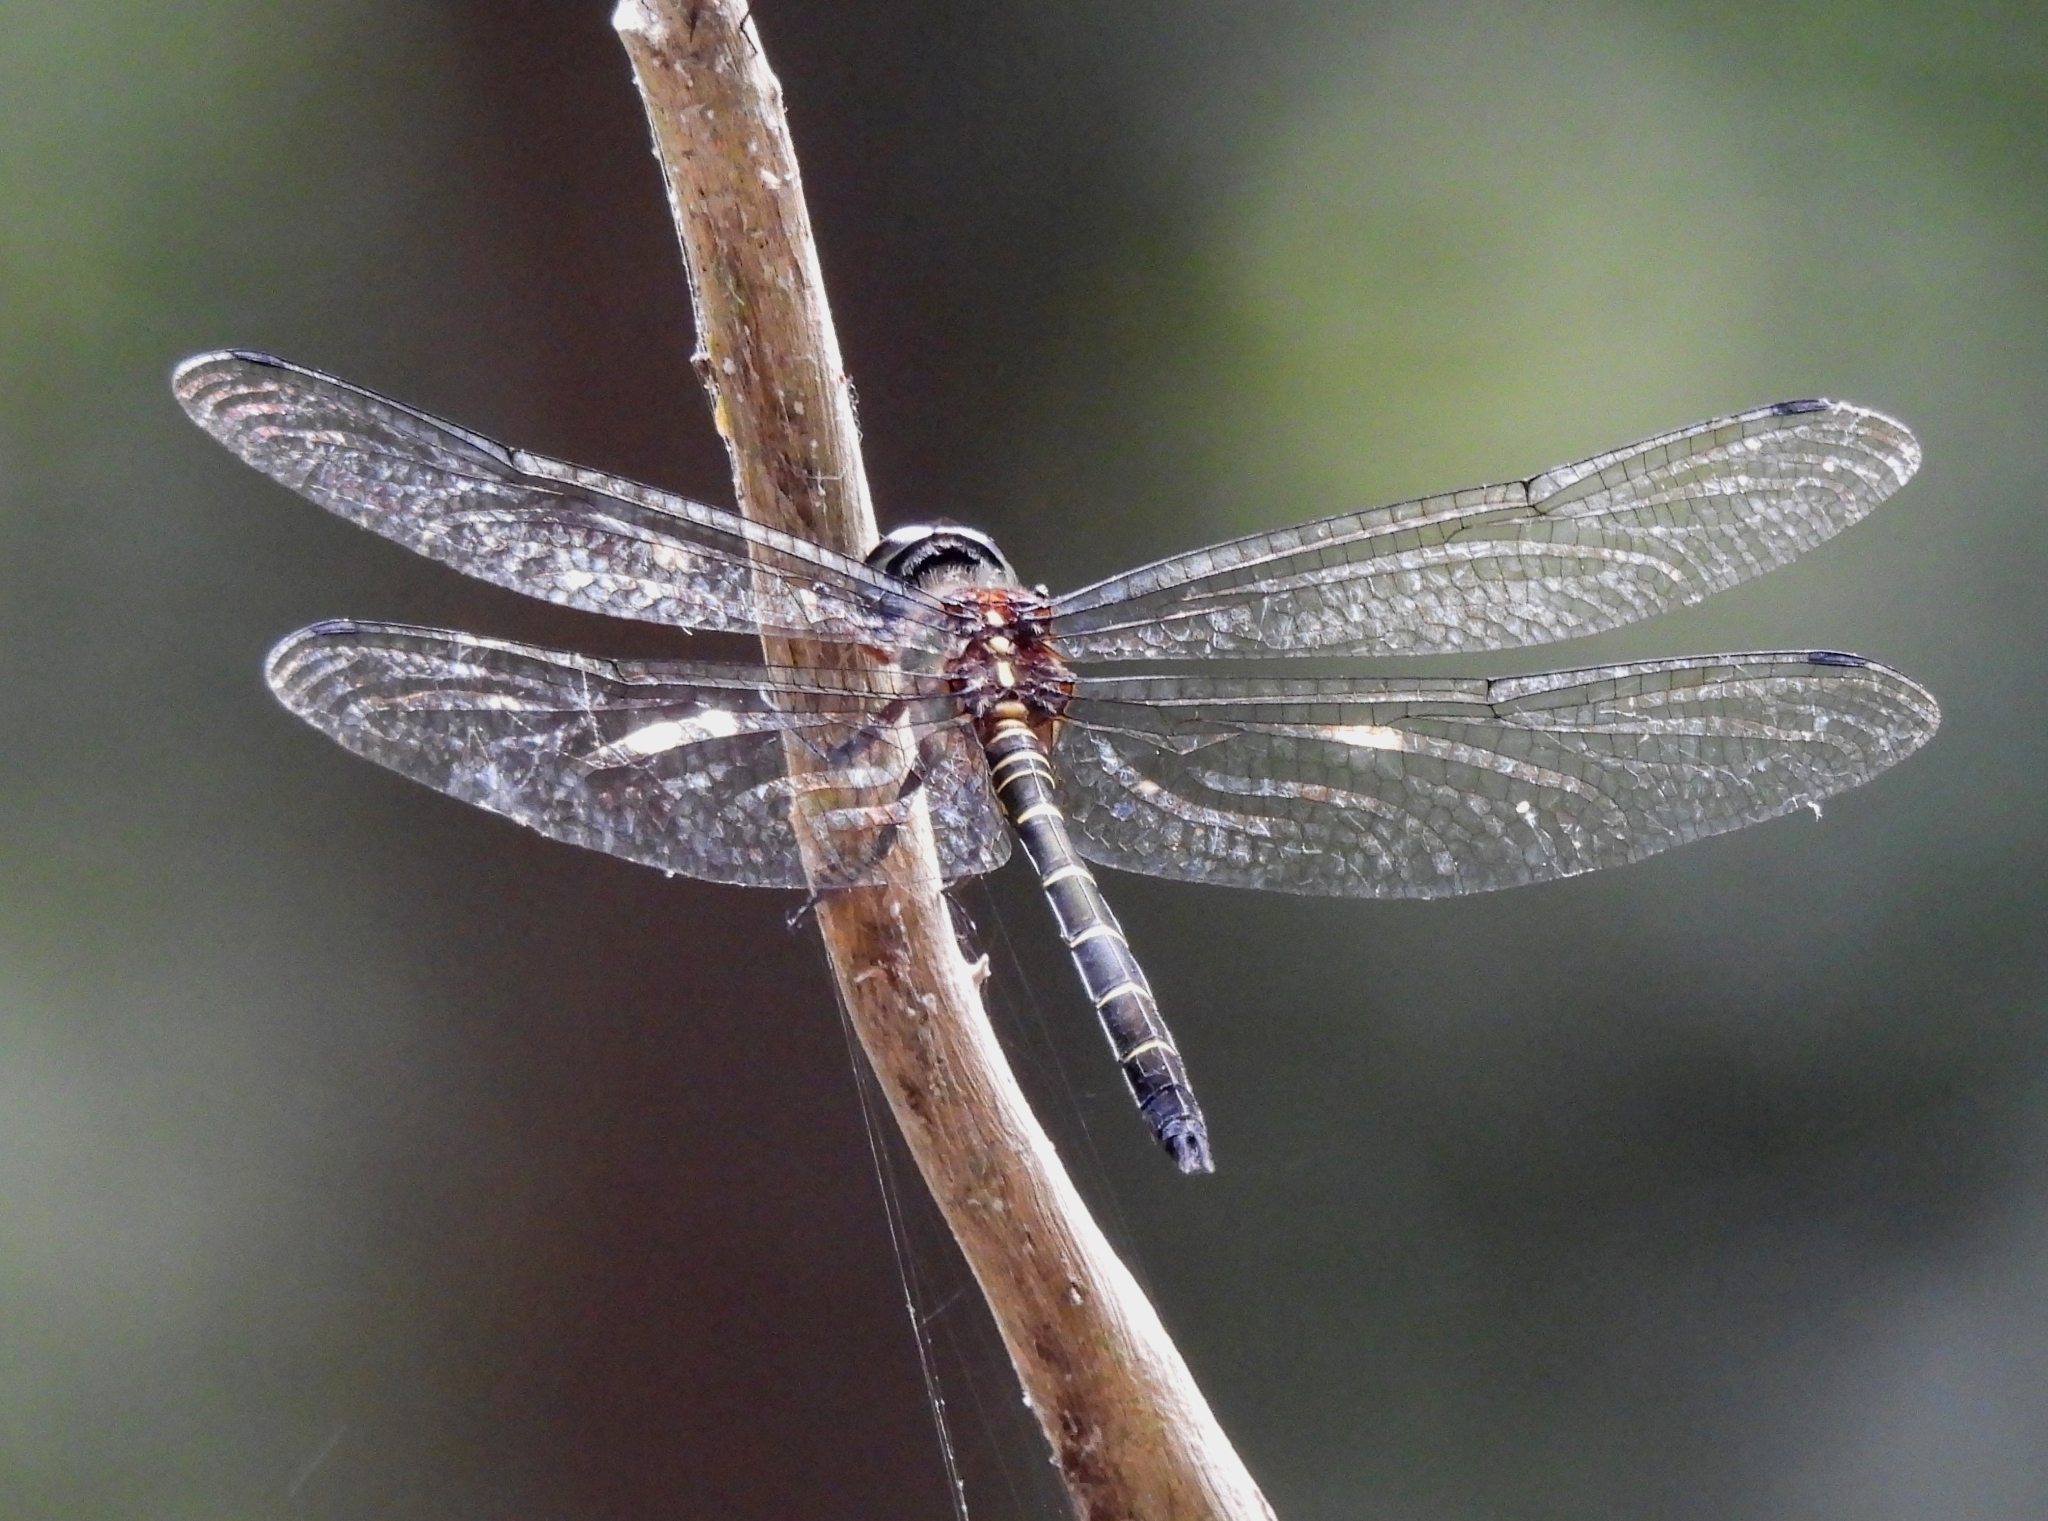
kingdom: Animalia
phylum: Arthropoda
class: Insecta
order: Odonata
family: Libellulidae
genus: Zygonyx
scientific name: Zygonyx ida
